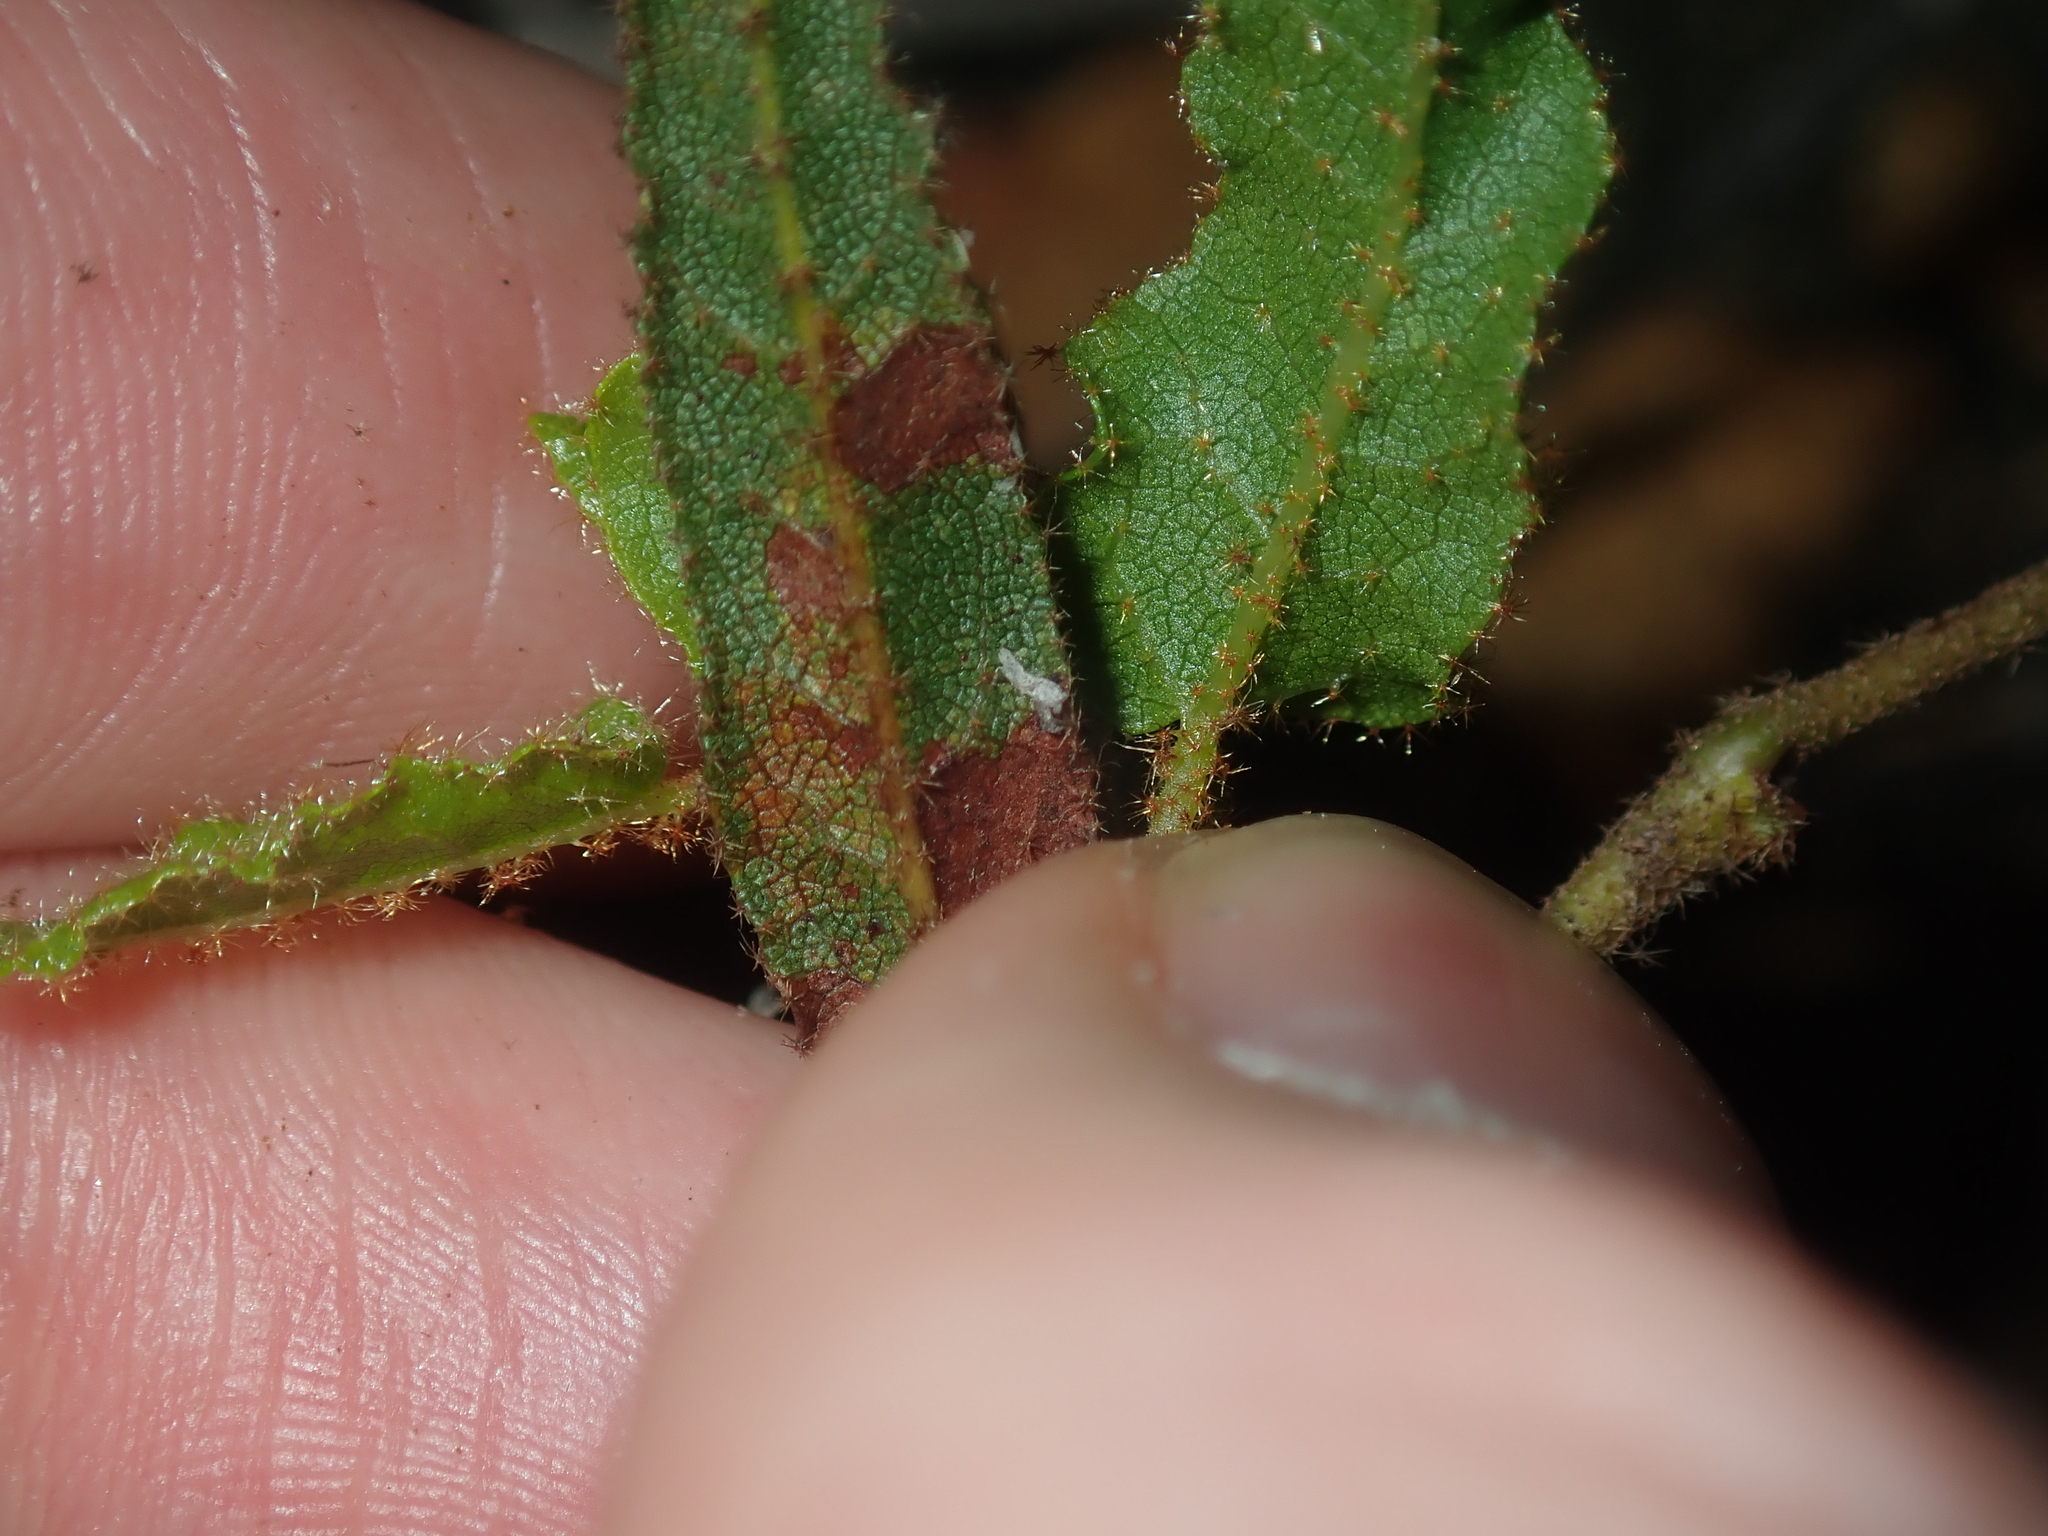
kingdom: Plantae
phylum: Tracheophyta
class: Magnoliopsida
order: Malvales
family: Malvaceae
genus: Thomasia
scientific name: Thomasia grandiflora
